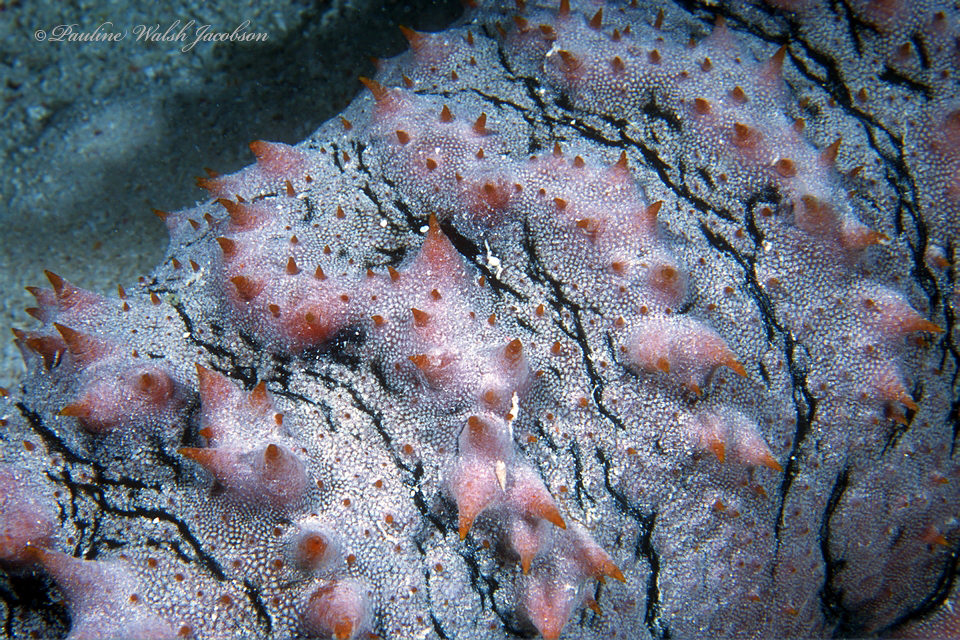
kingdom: Animalia
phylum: Echinodermata
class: Holothuroidea
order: Synallactida
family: Stichopodidae
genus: Thelenota
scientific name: Thelenota ananas
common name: Prickly redfish
